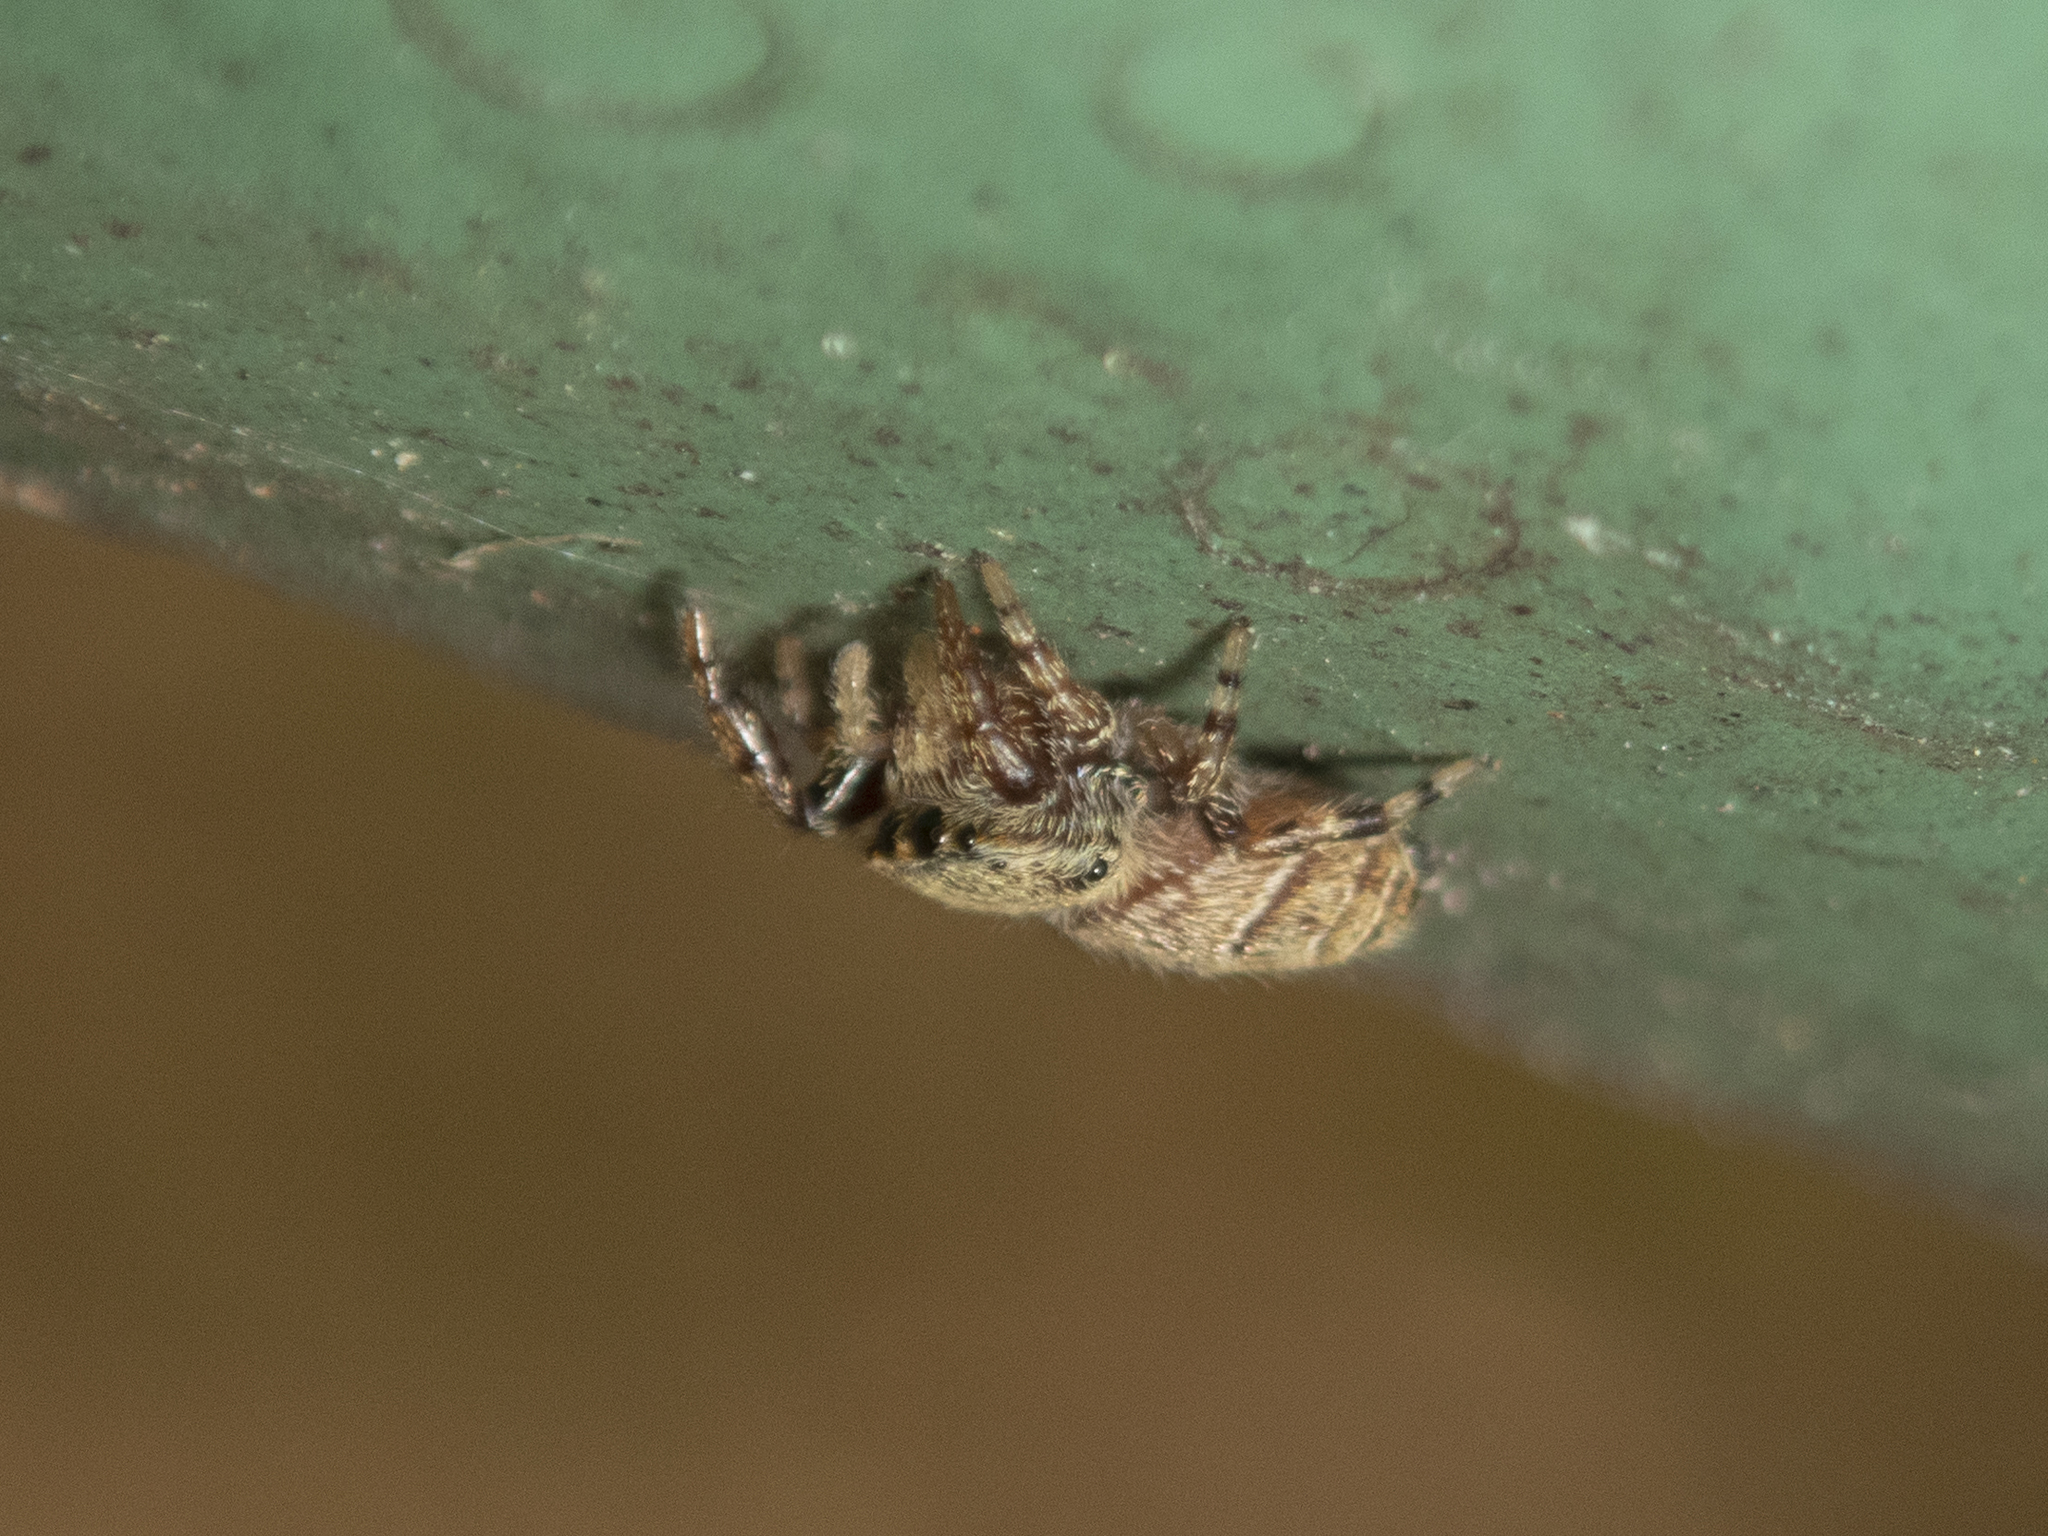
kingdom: Animalia
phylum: Arthropoda
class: Arachnida
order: Araneae
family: Salticidae
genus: Rhene
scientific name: Rhene flavicomans
